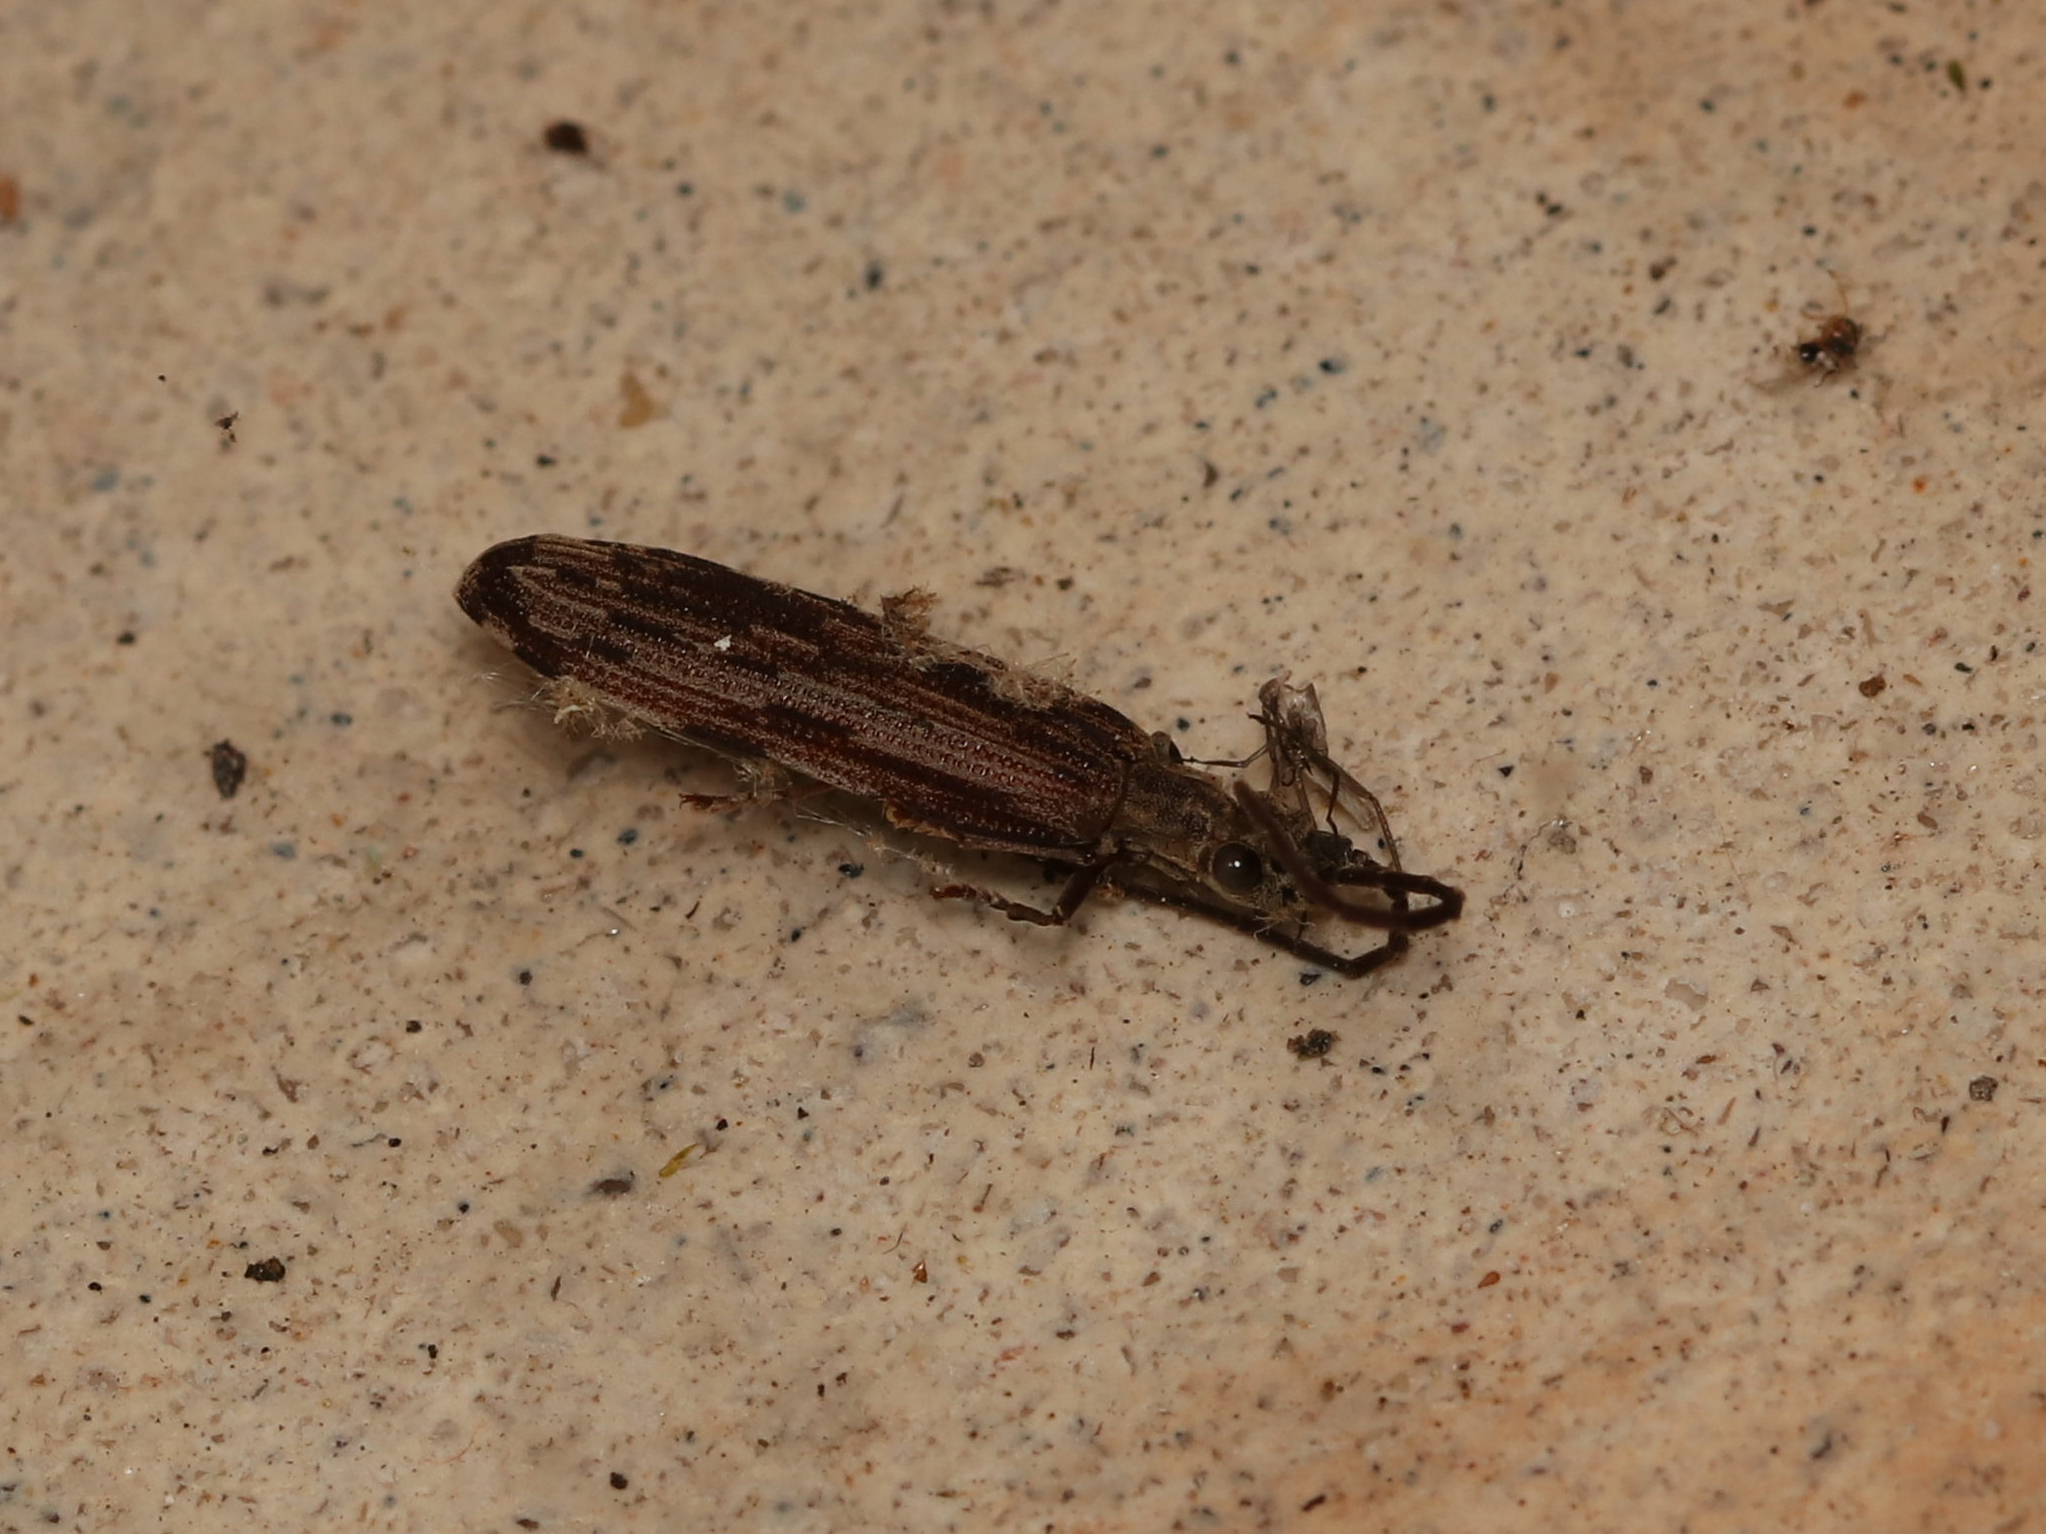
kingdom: Animalia
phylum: Arthropoda
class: Insecta
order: Coleoptera
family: Cupedidae
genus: Tenomerga
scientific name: Tenomerga cinerea
